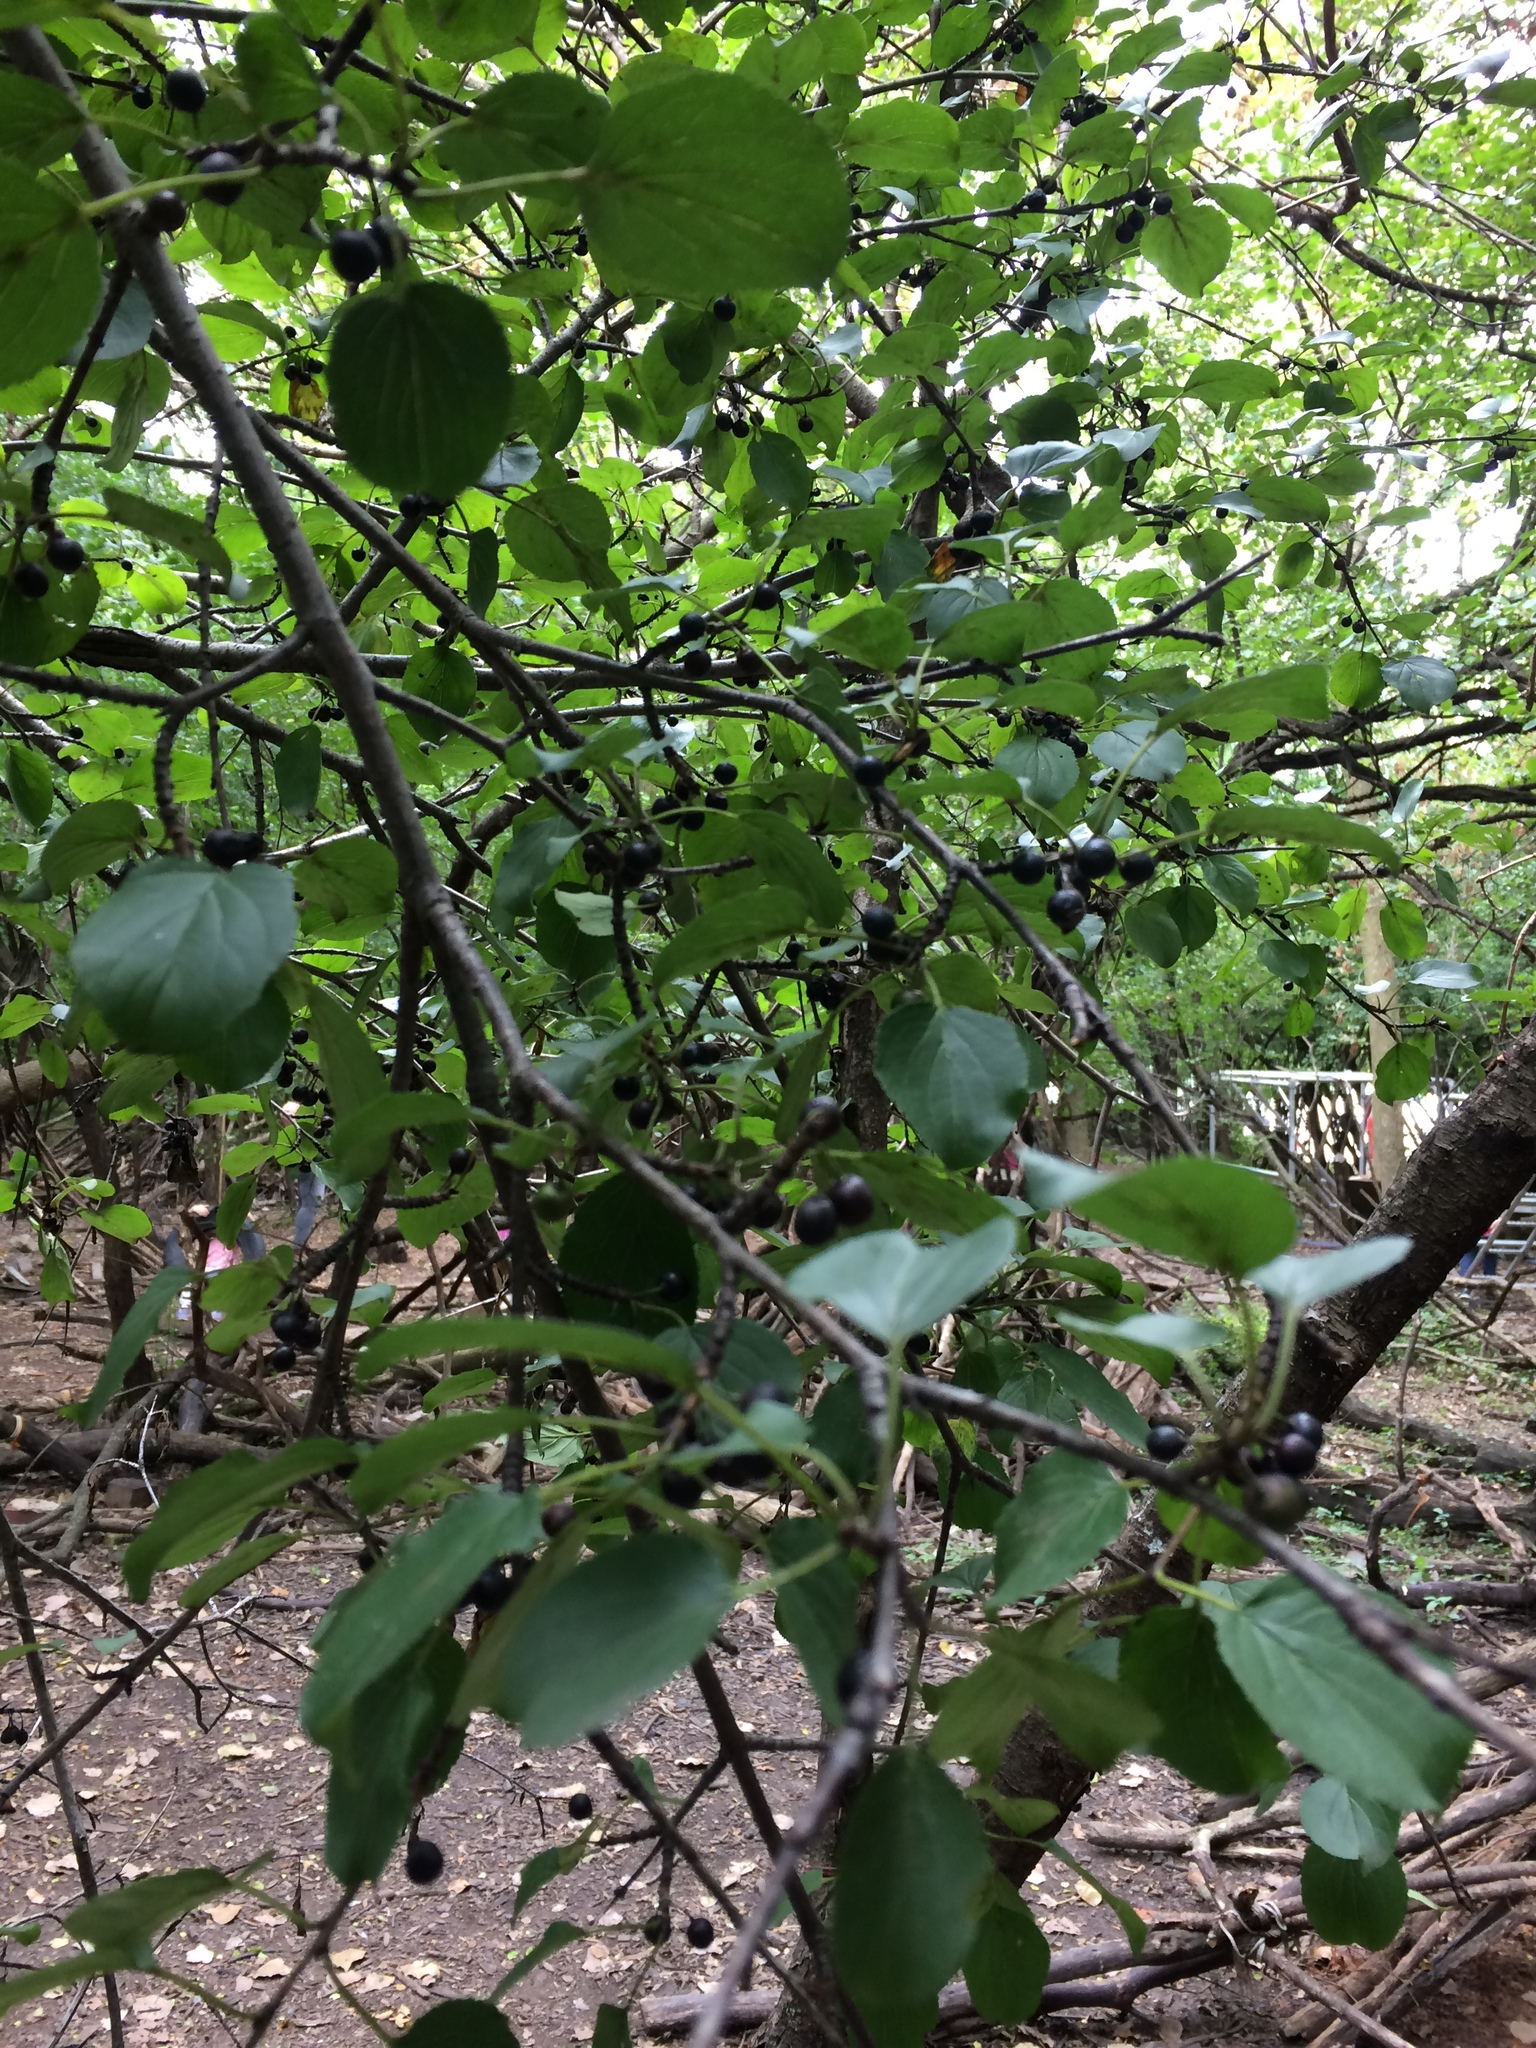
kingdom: Plantae
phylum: Tracheophyta
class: Magnoliopsida
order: Rosales
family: Rhamnaceae
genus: Rhamnus
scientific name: Rhamnus cathartica
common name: Common buckthorn
